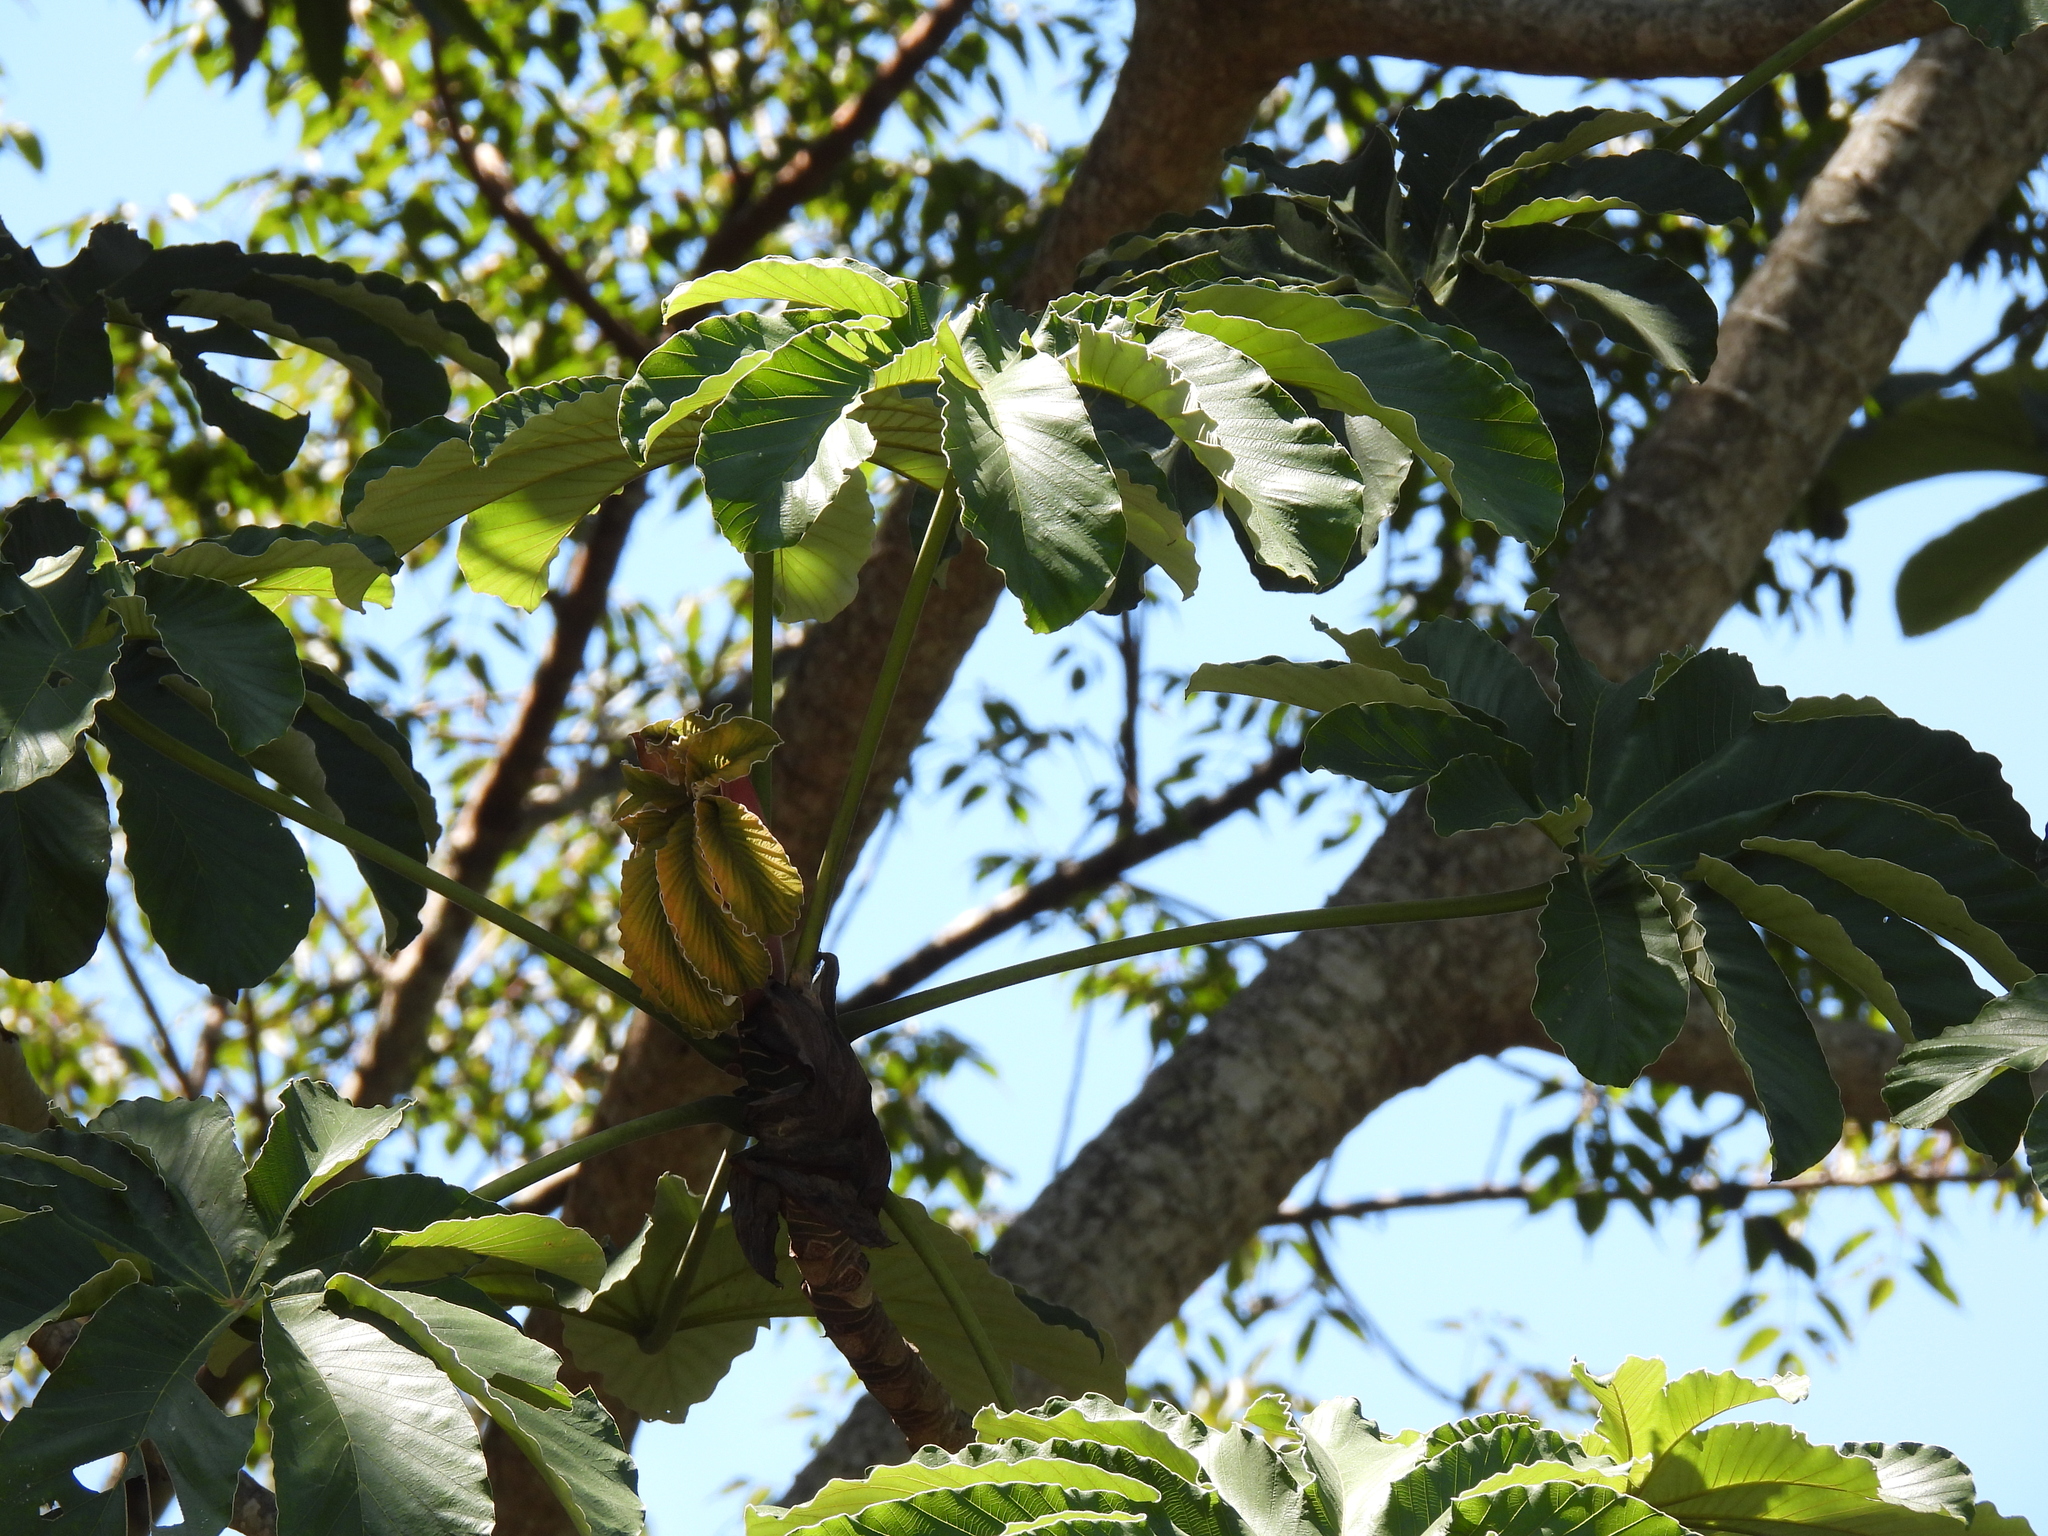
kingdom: Plantae
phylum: Tracheophyta
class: Magnoliopsida
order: Rosales
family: Urticaceae
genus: Cecropia
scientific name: Cecropia obtusifolia
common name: Trumpet tree
